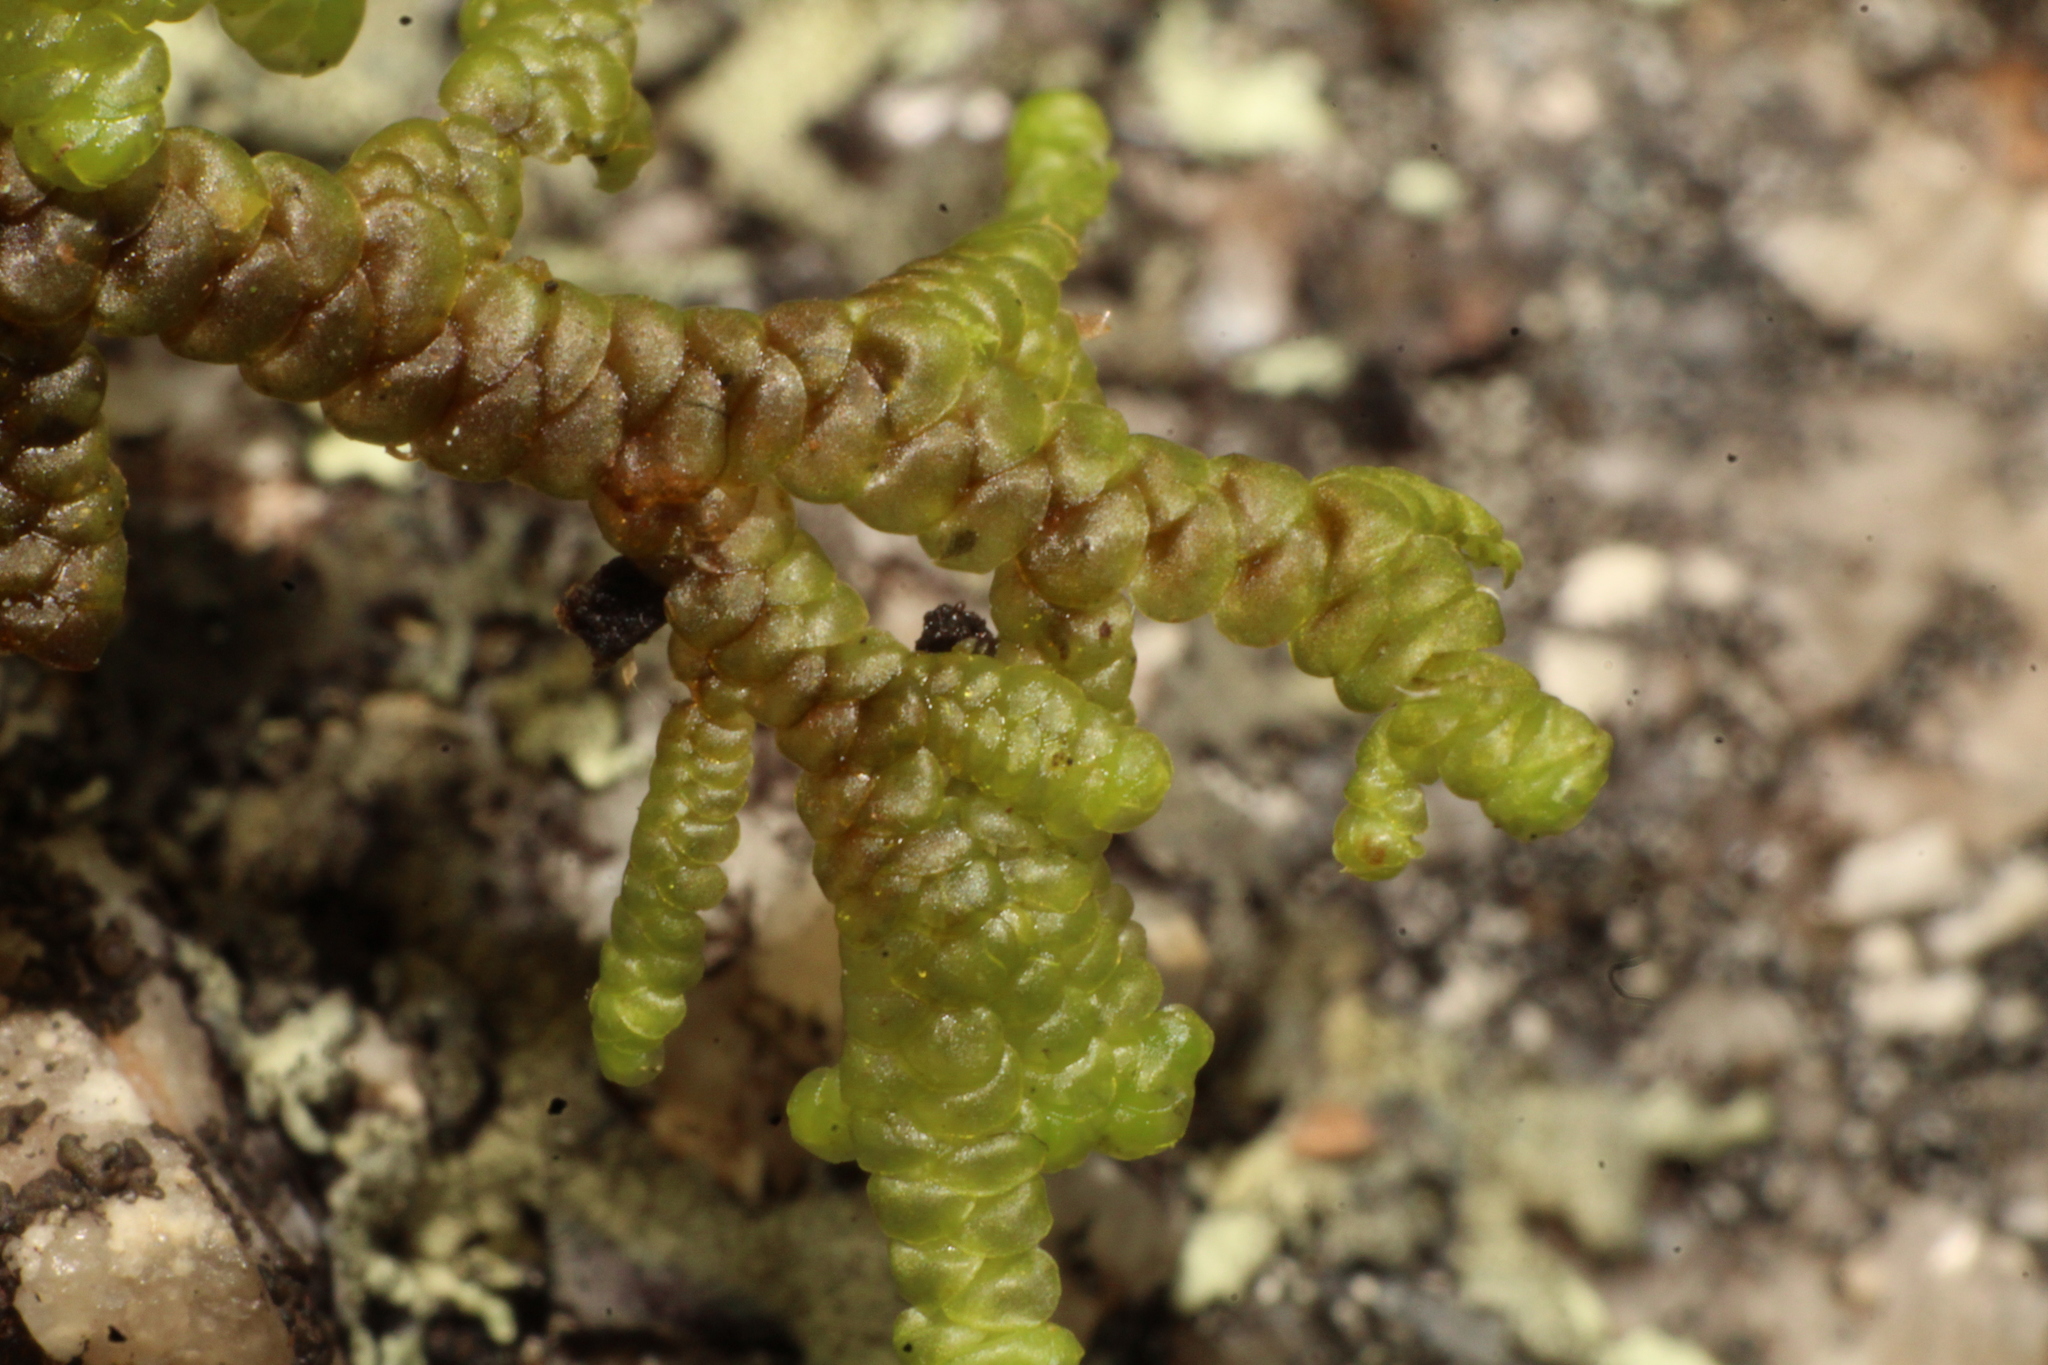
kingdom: Plantae
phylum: Marchantiophyta
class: Jungermanniopsida
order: Porellales
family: Frullaniaceae
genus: Frullania
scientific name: Frullania falciloba
